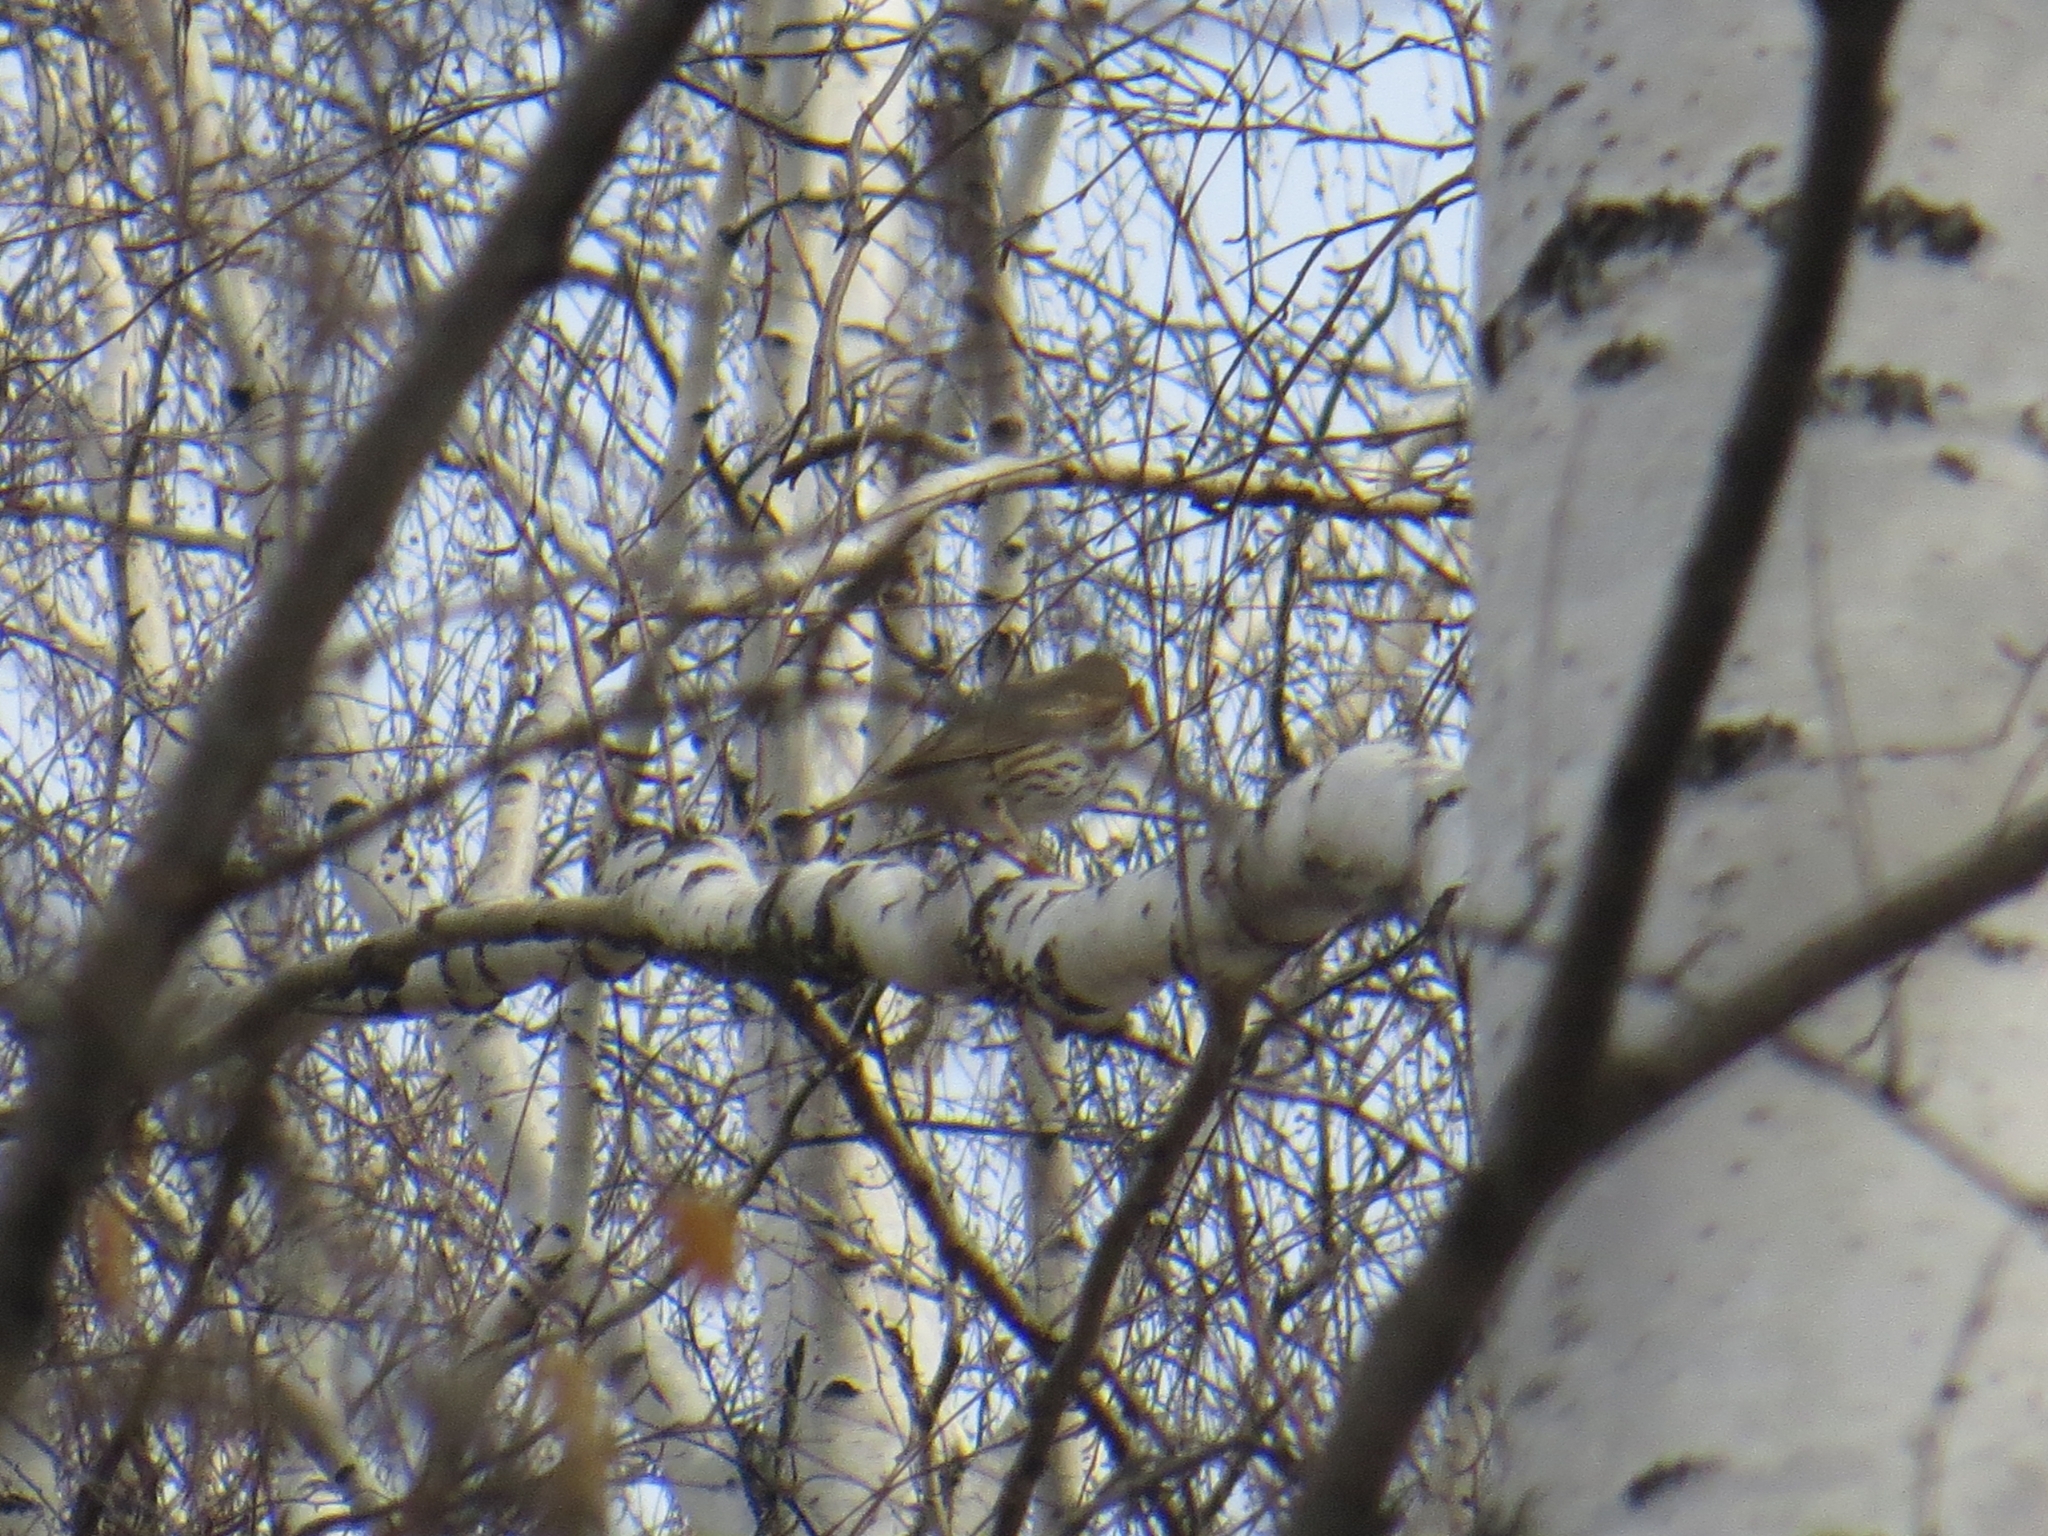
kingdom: Animalia
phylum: Chordata
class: Aves
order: Passeriformes
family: Turdidae
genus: Turdus
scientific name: Turdus philomelos
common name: Song thrush
